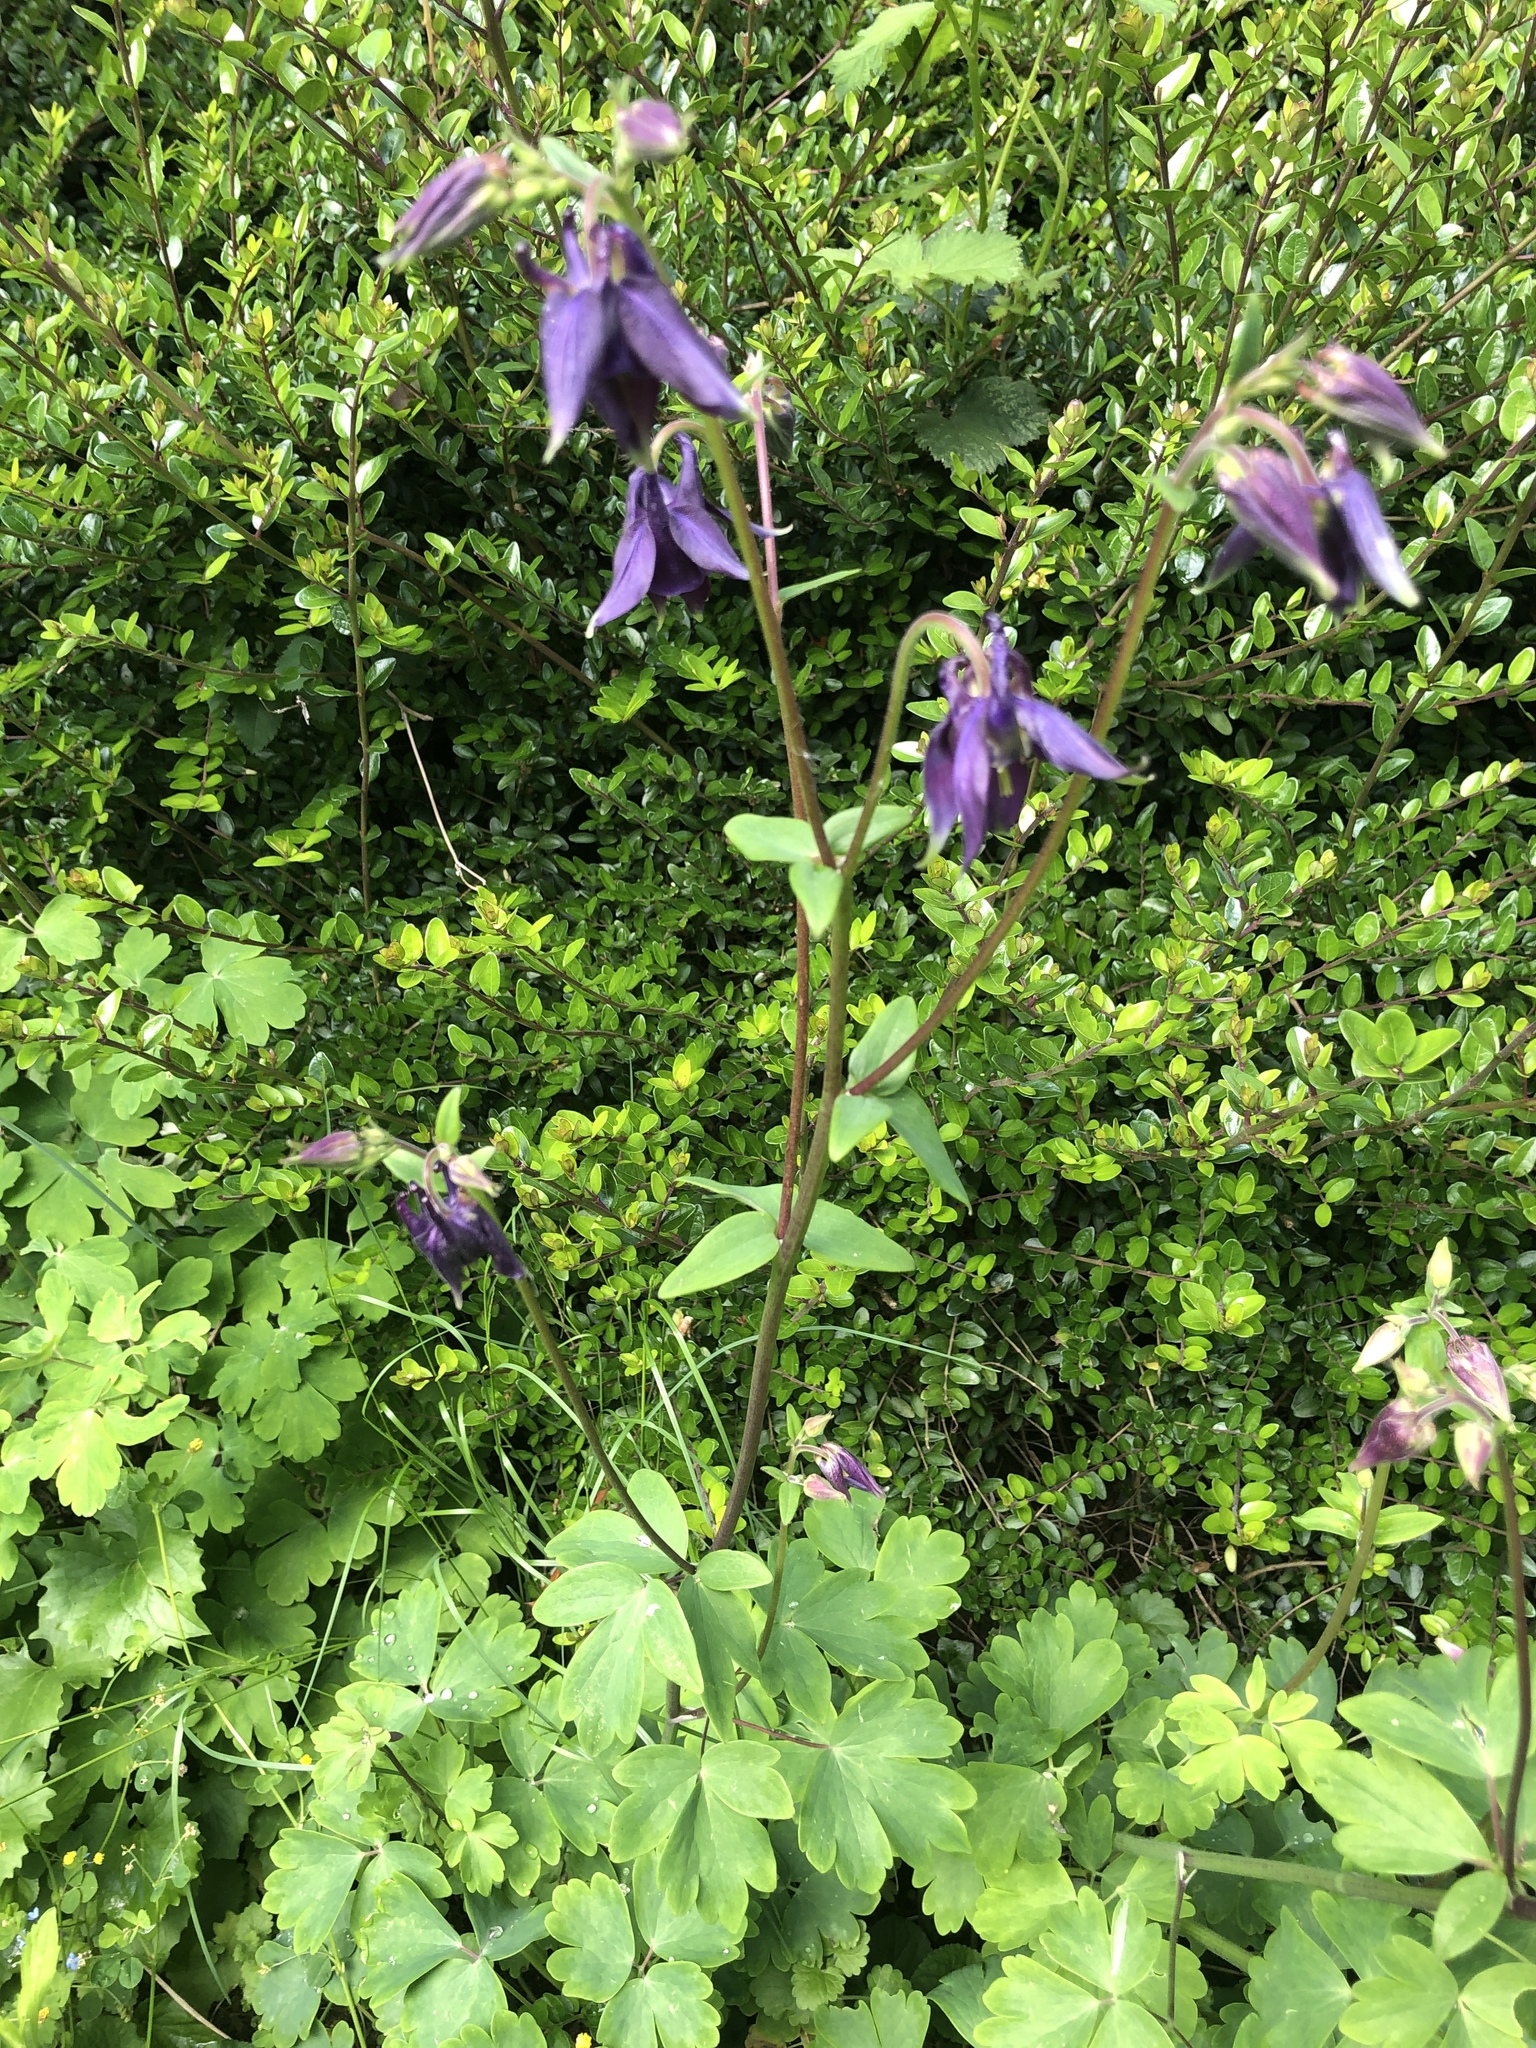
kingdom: Plantae
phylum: Tracheophyta
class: Magnoliopsida
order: Ranunculales
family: Ranunculaceae
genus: Aquilegia
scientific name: Aquilegia vulgaris
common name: Columbine
